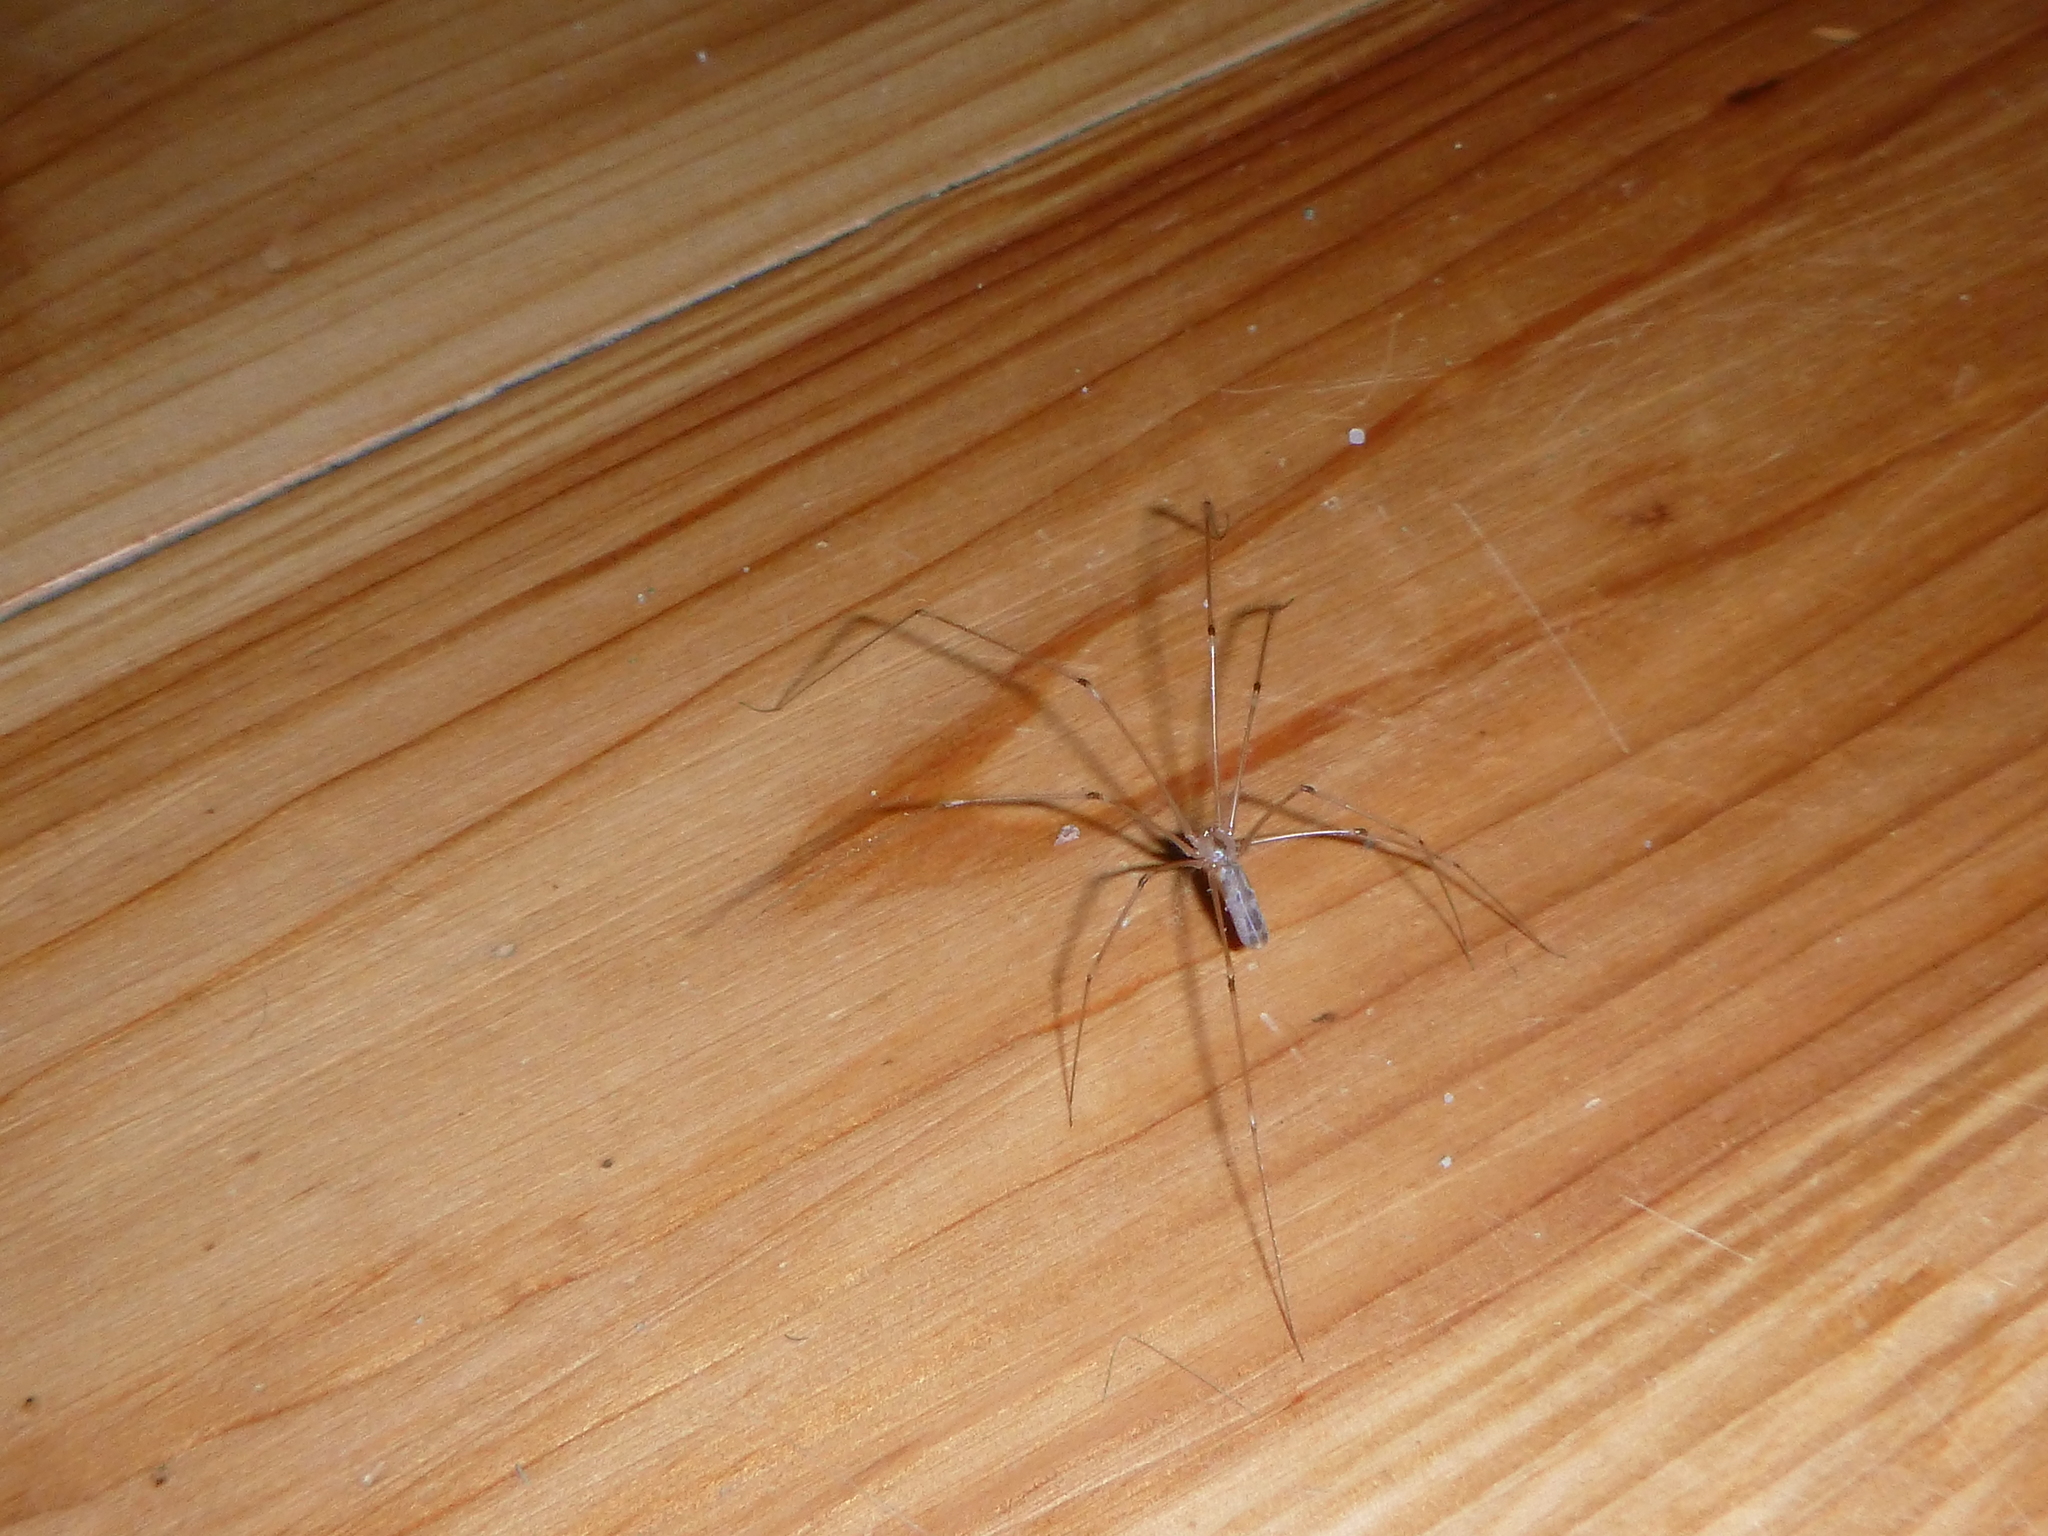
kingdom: Animalia
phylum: Arthropoda
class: Arachnida
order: Araneae
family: Pholcidae
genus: Pholcus
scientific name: Pholcus phalangioides
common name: Longbodied cellar spider
